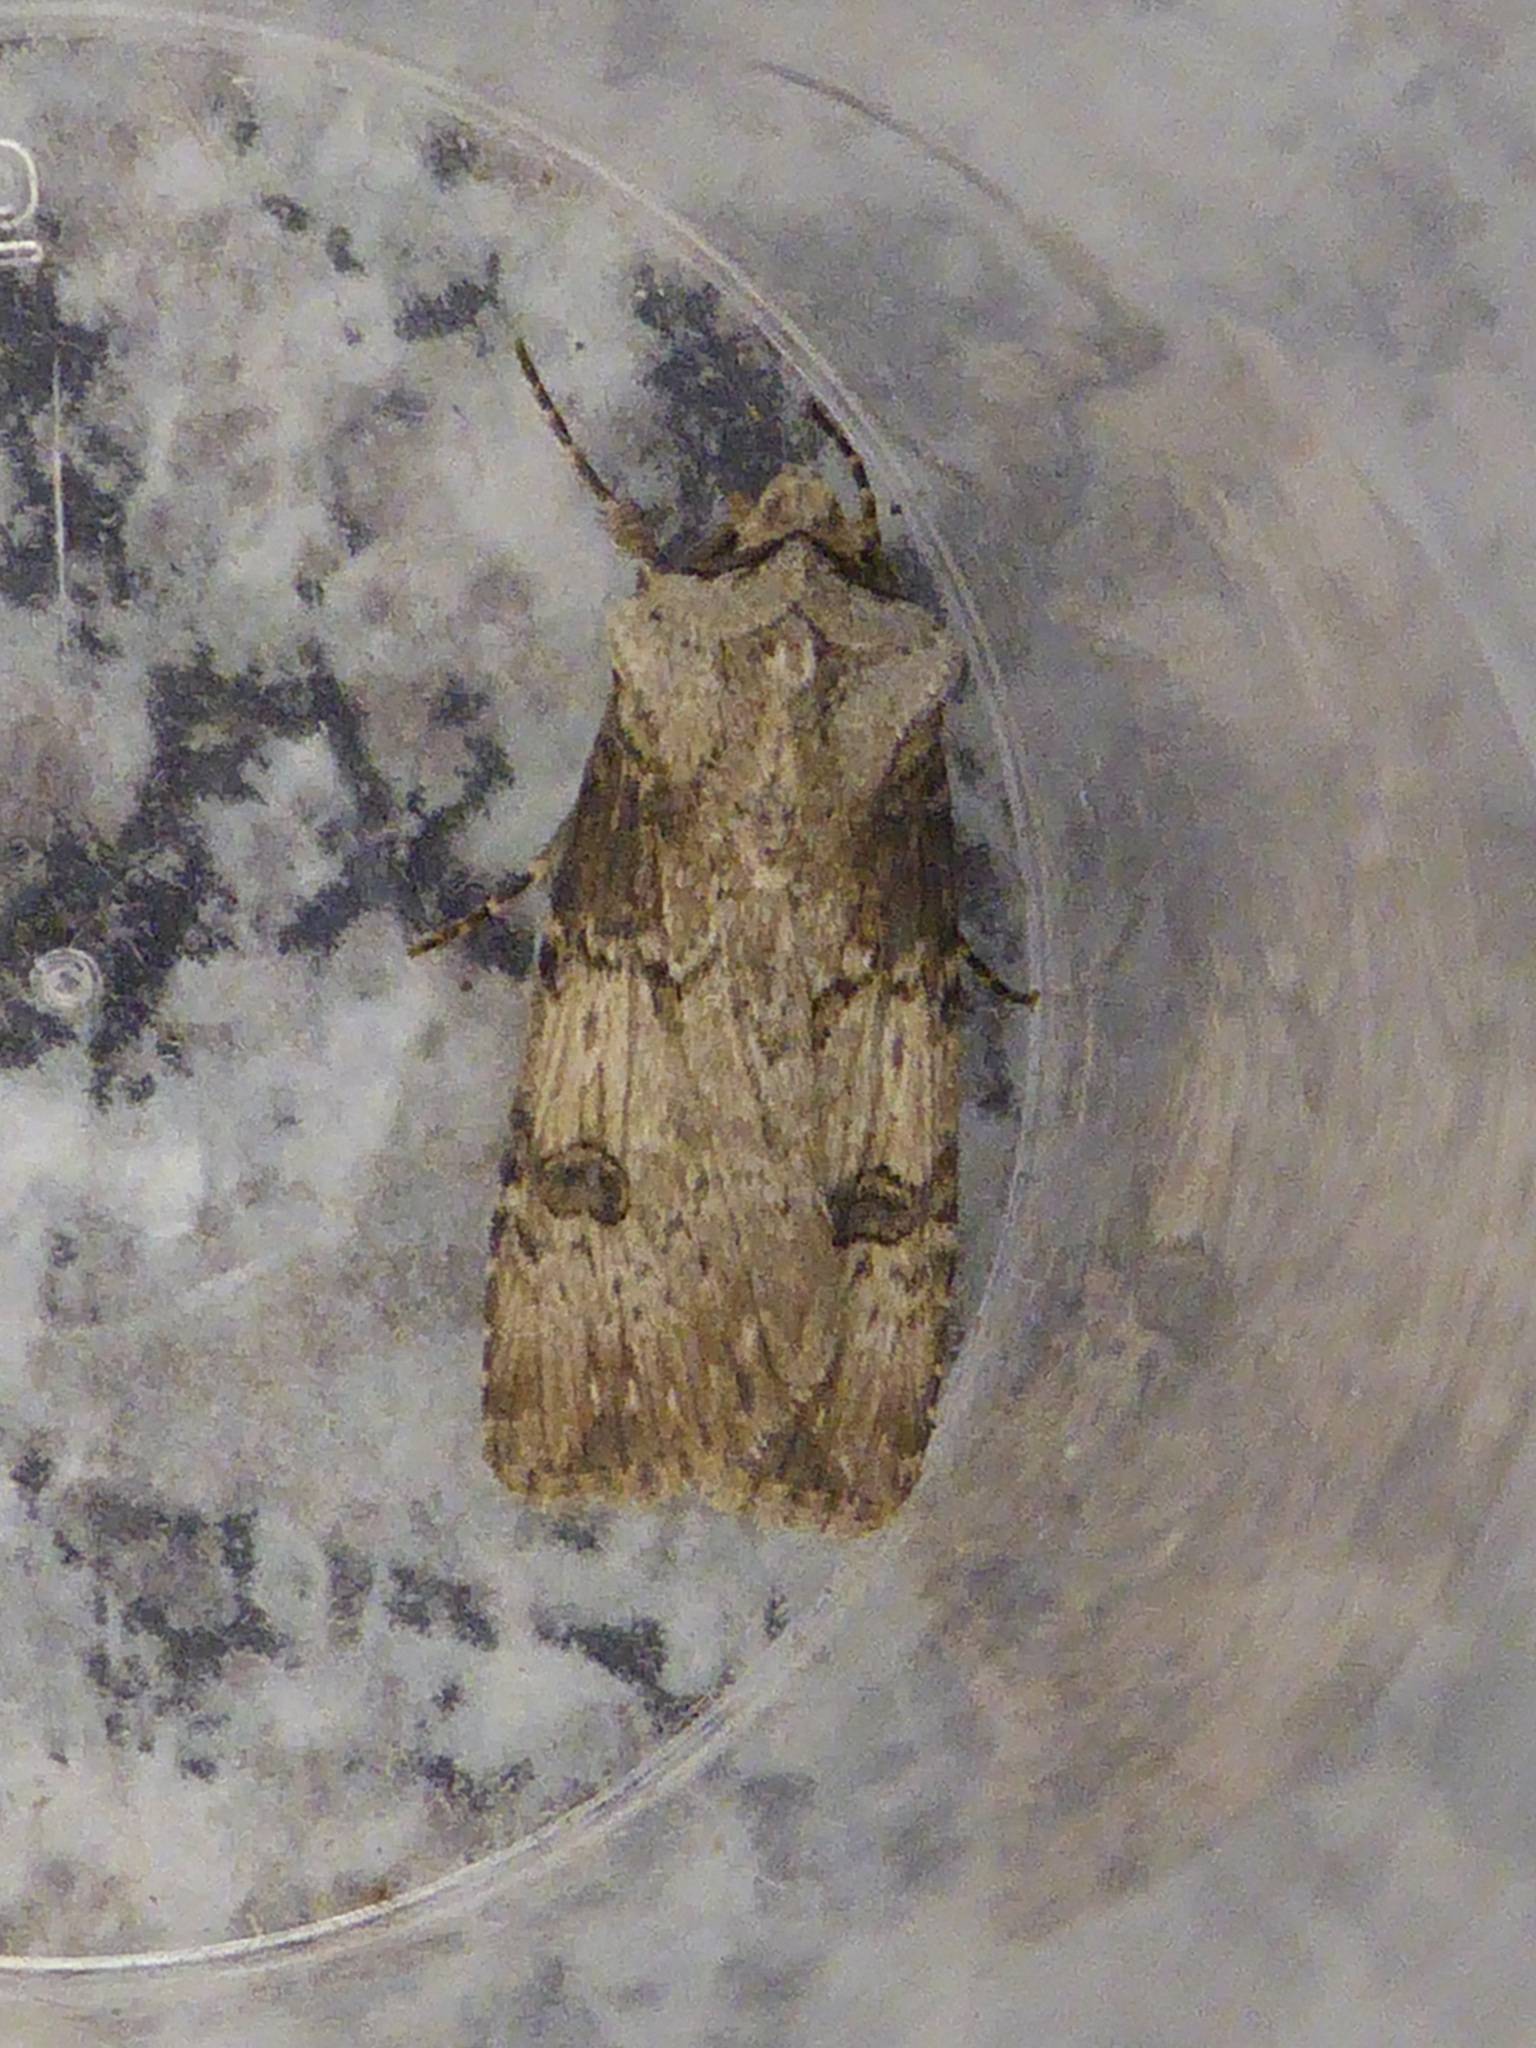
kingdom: Animalia
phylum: Arthropoda
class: Insecta
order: Lepidoptera
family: Noctuidae
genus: Agrotis
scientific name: Agrotis puta
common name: Shuttle-shaped dart
